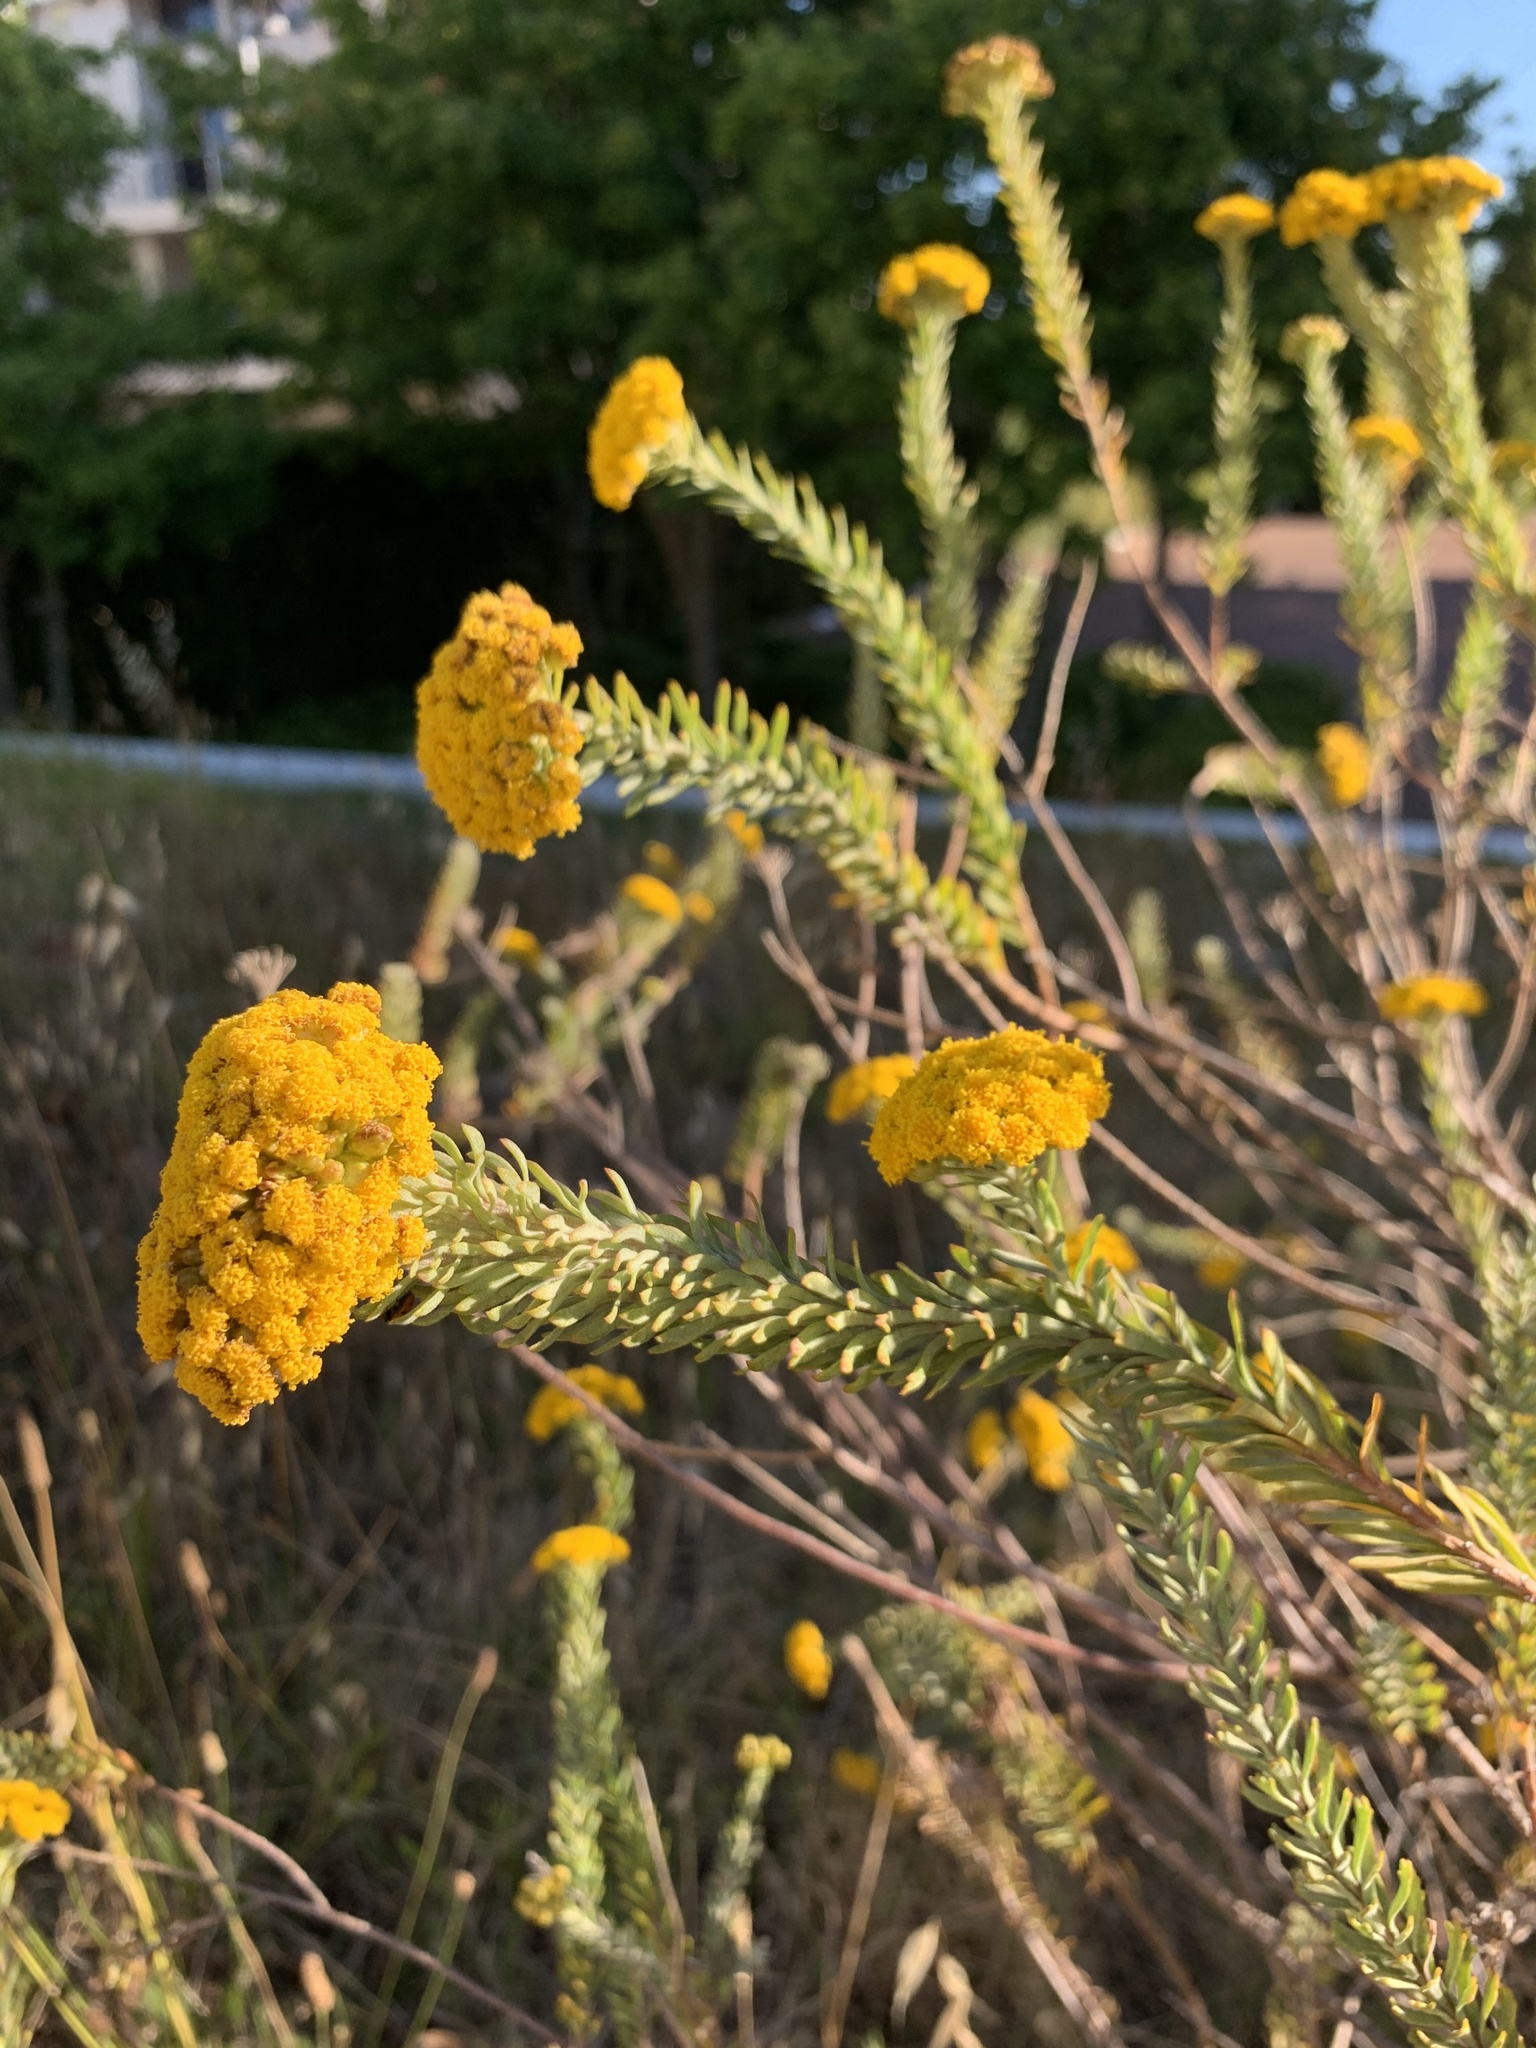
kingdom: Plantae
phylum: Tracheophyta
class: Magnoliopsida
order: Asterales
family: Asteraceae
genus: Athanasia
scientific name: Athanasia trifurcata
